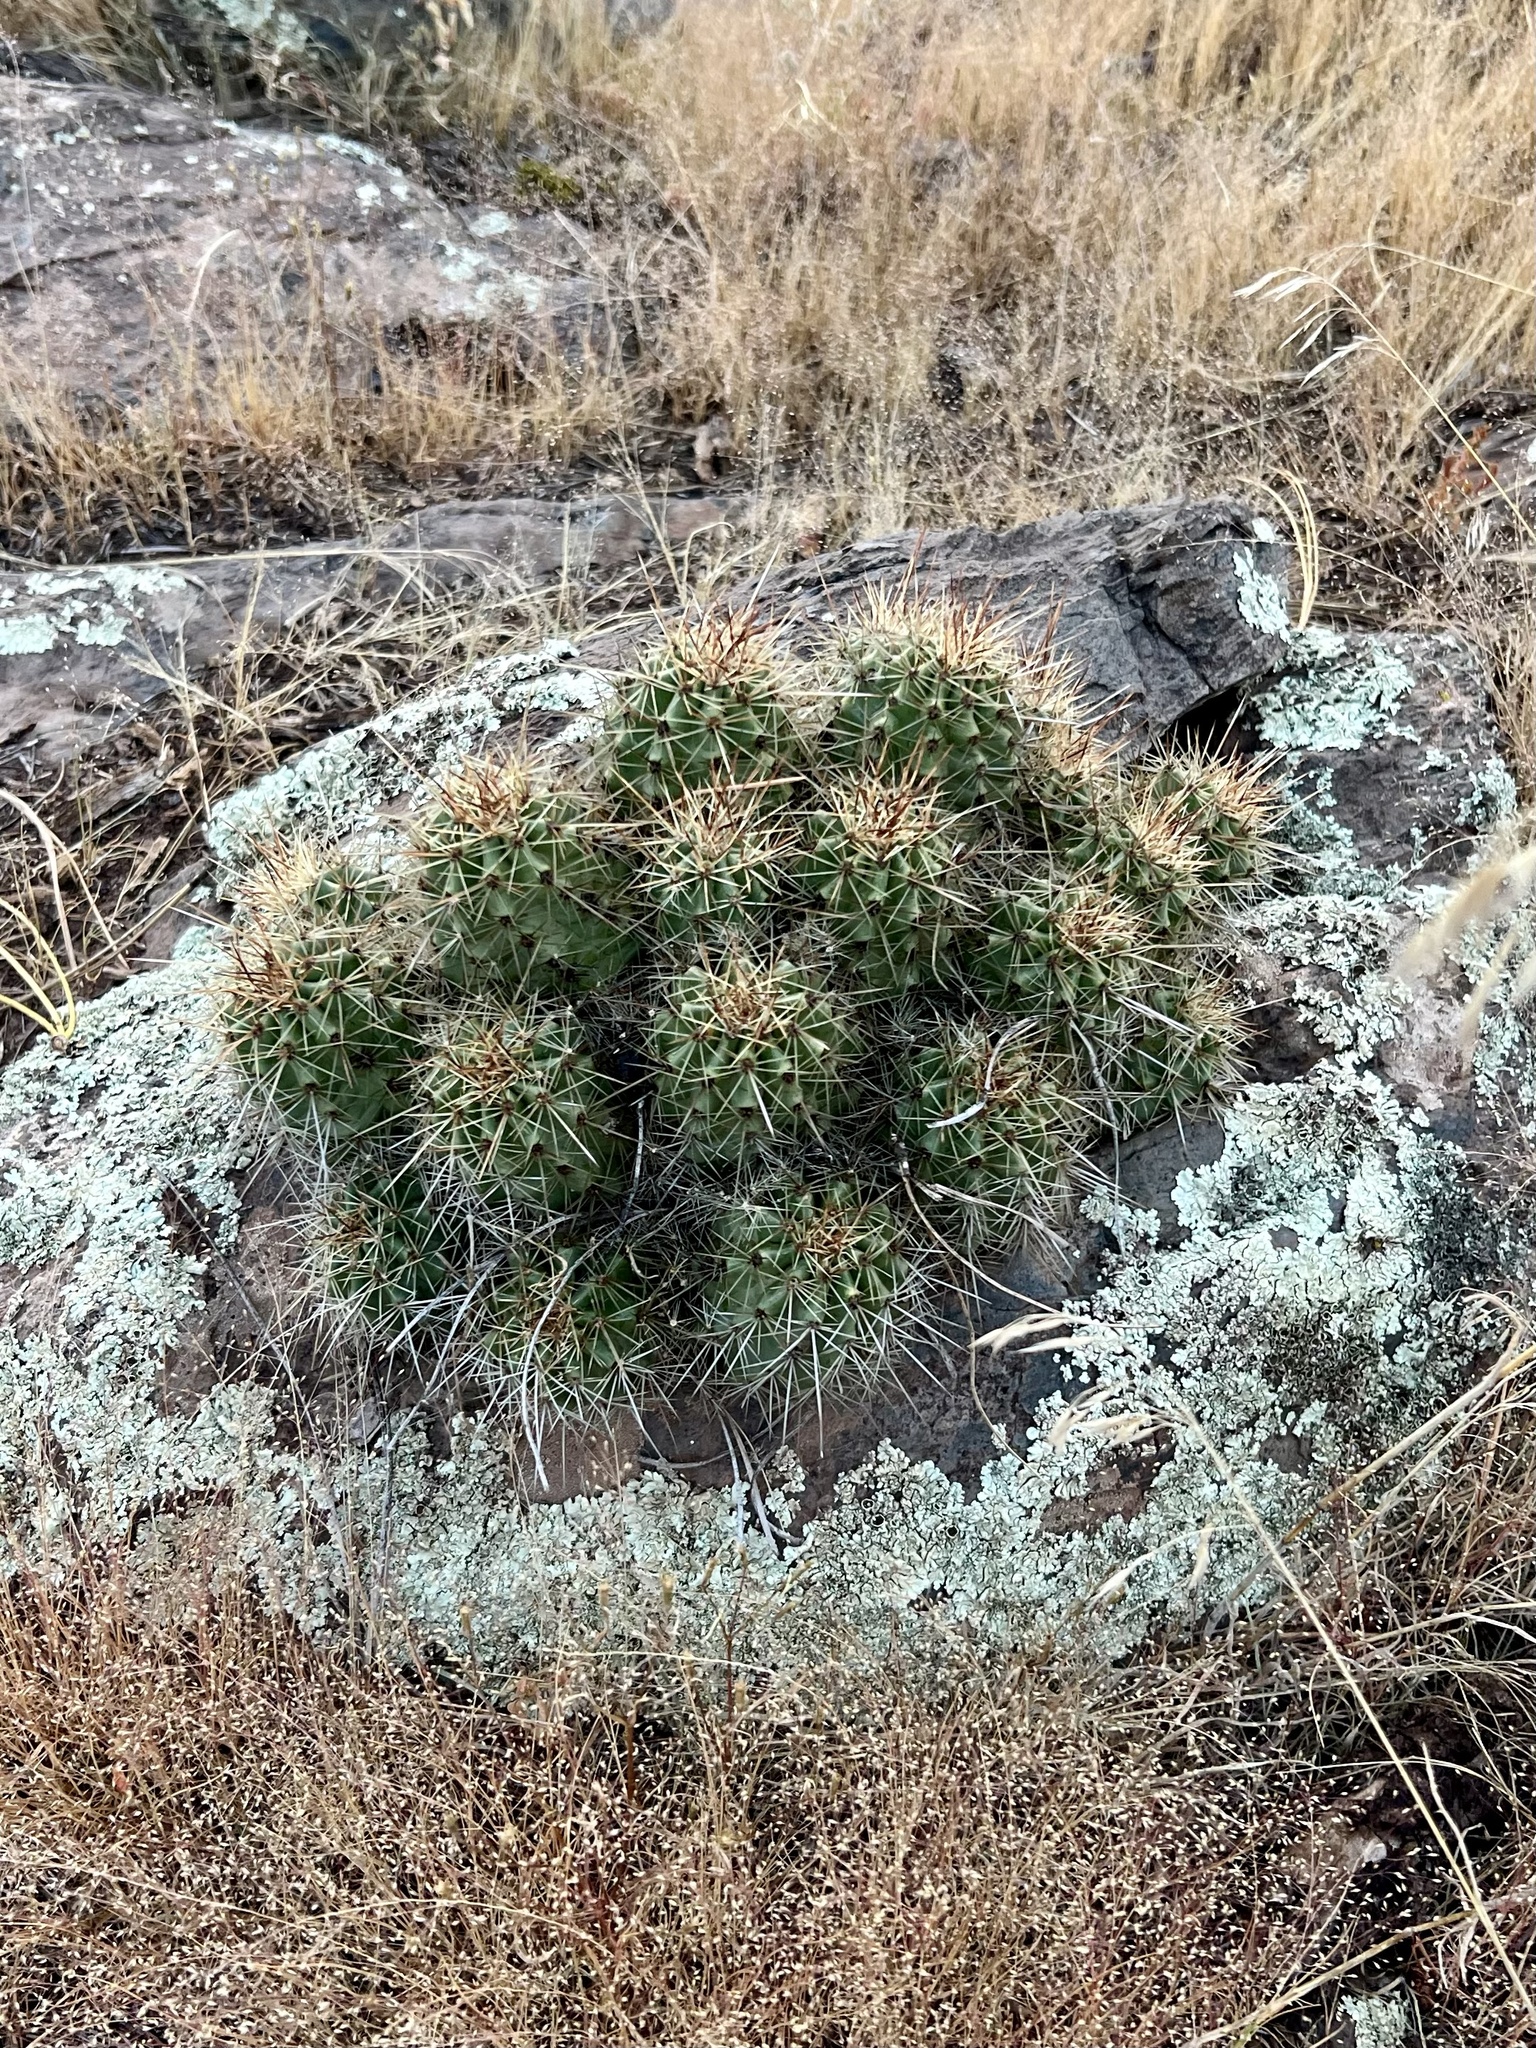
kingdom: Plantae
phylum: Tracheophyta
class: Magnoliopsida
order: Caryophyllales
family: Cactaceae
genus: Echinocereus
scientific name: Echinocereus bakeri
